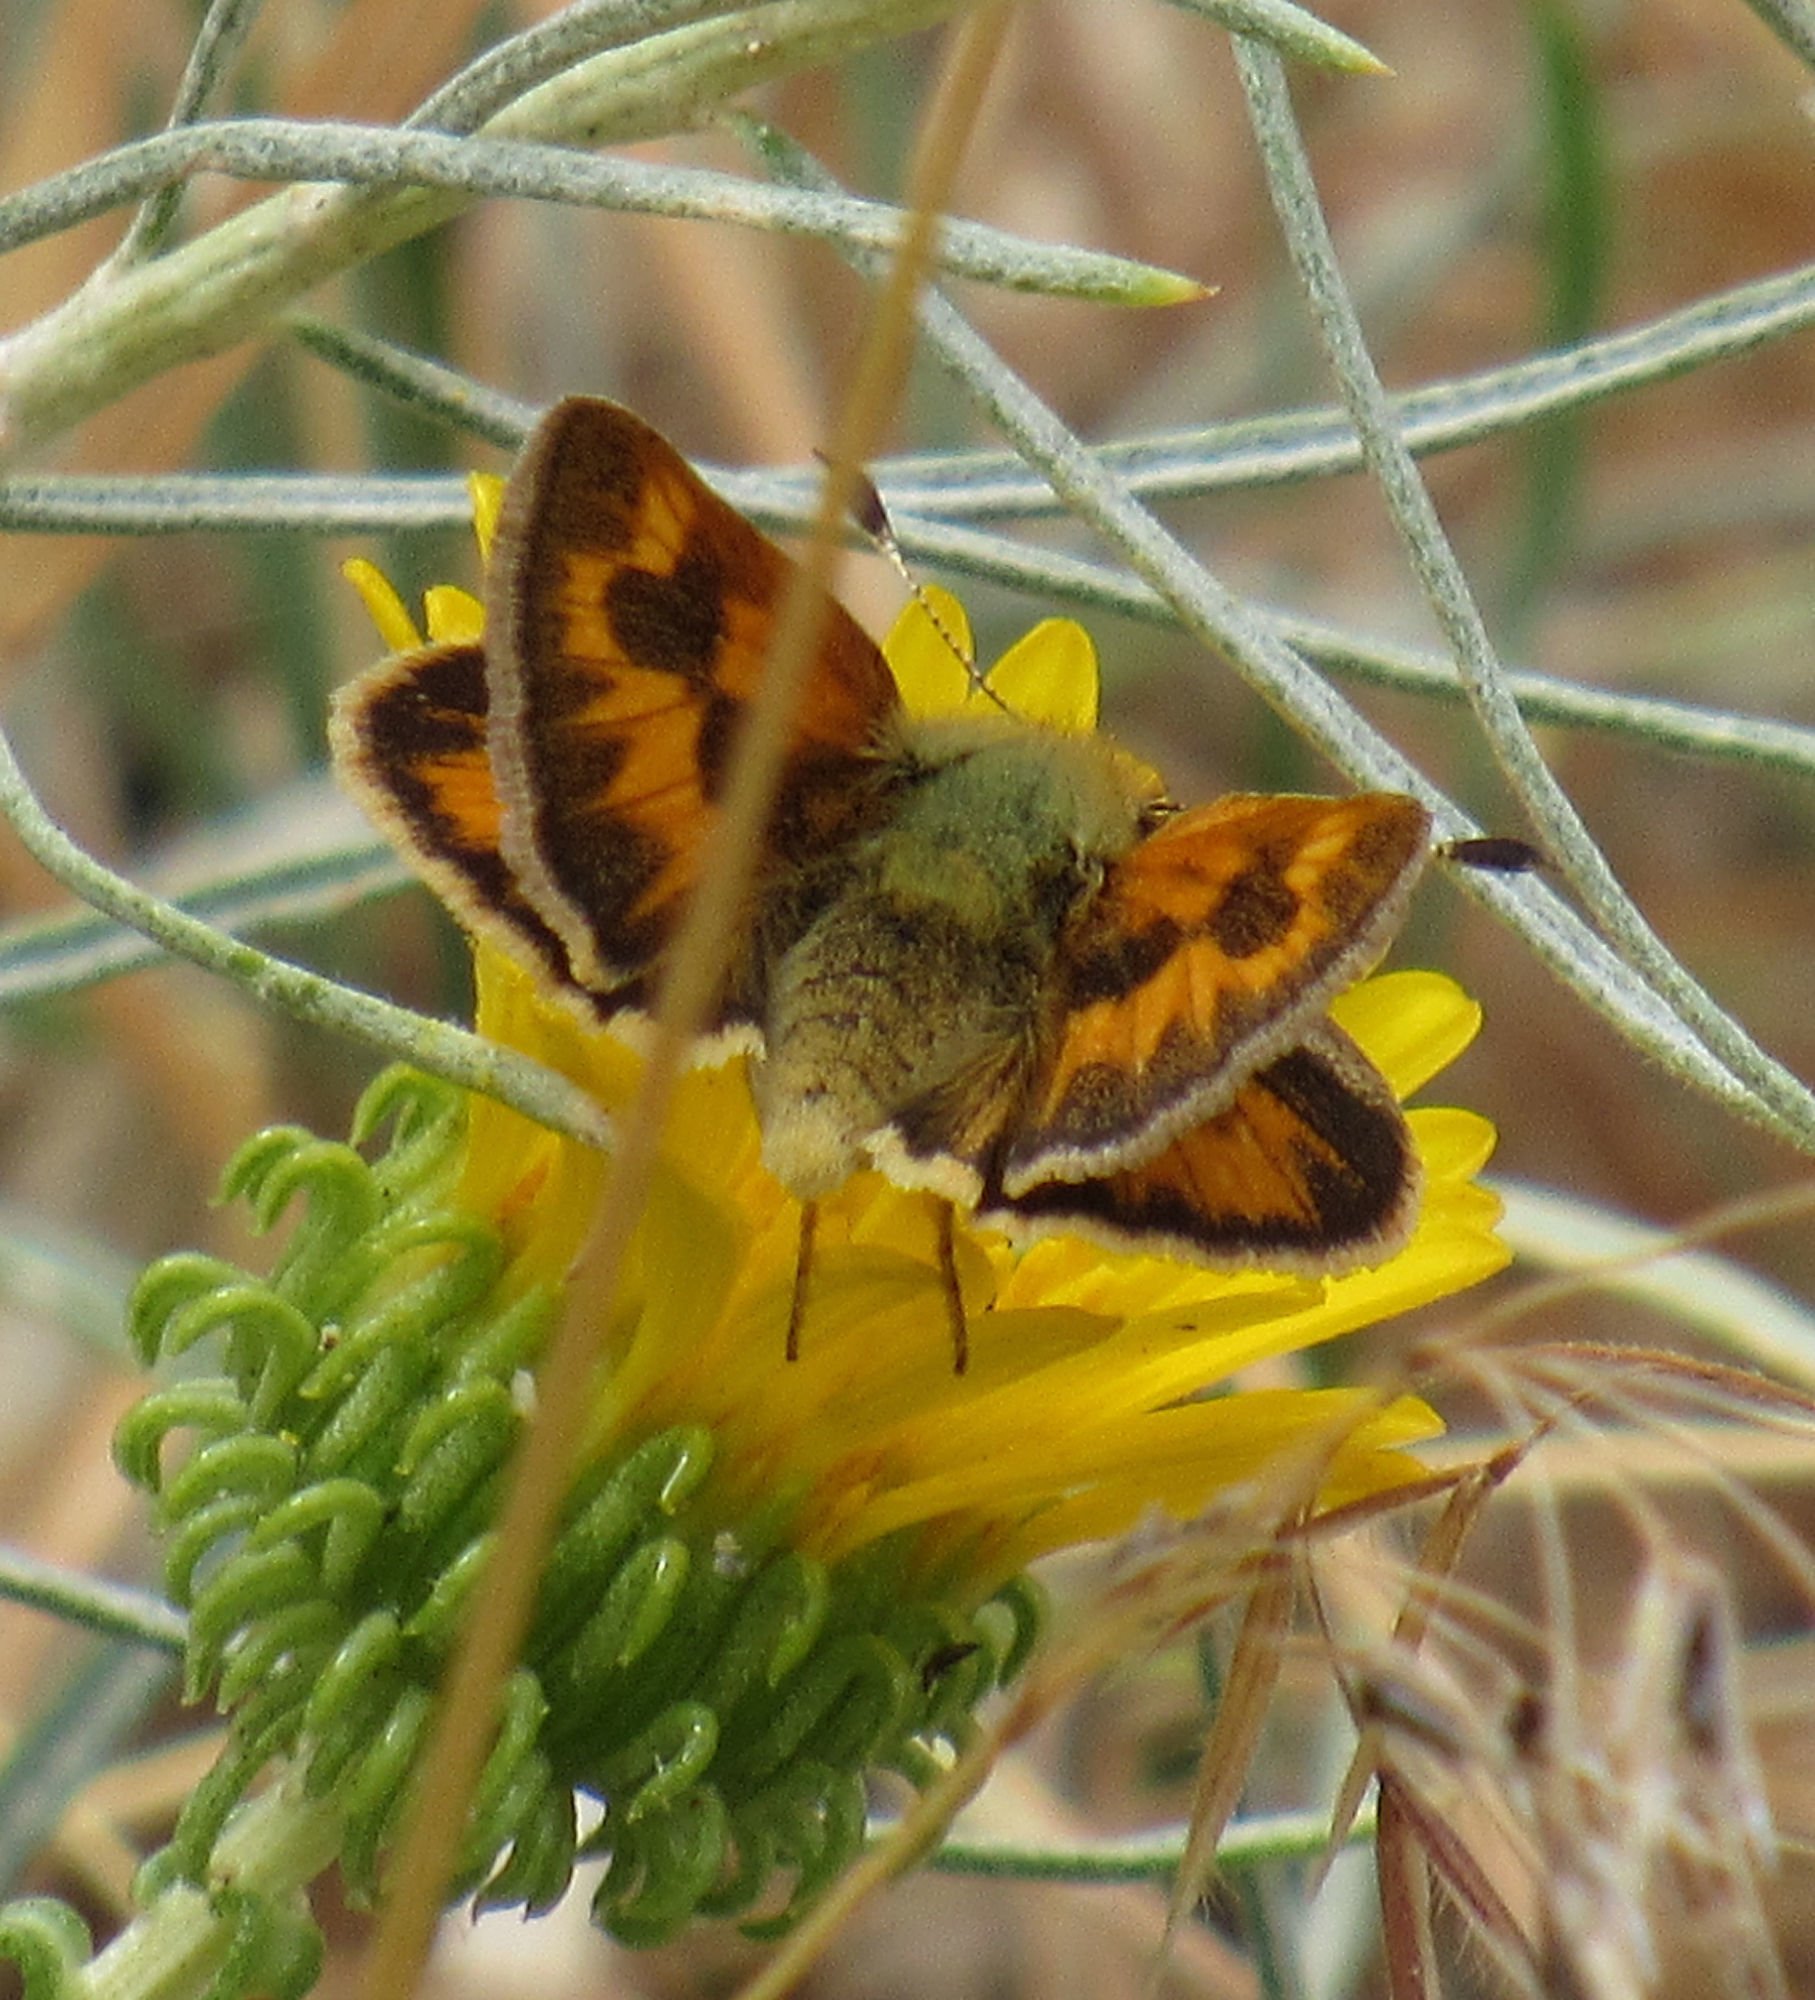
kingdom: Animalia
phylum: Arthropoda
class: Insecta
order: Lepidoptera
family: Hesperiidae
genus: Ochlodes
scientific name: Ochlodes sylvanoides
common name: Woodland skipper
